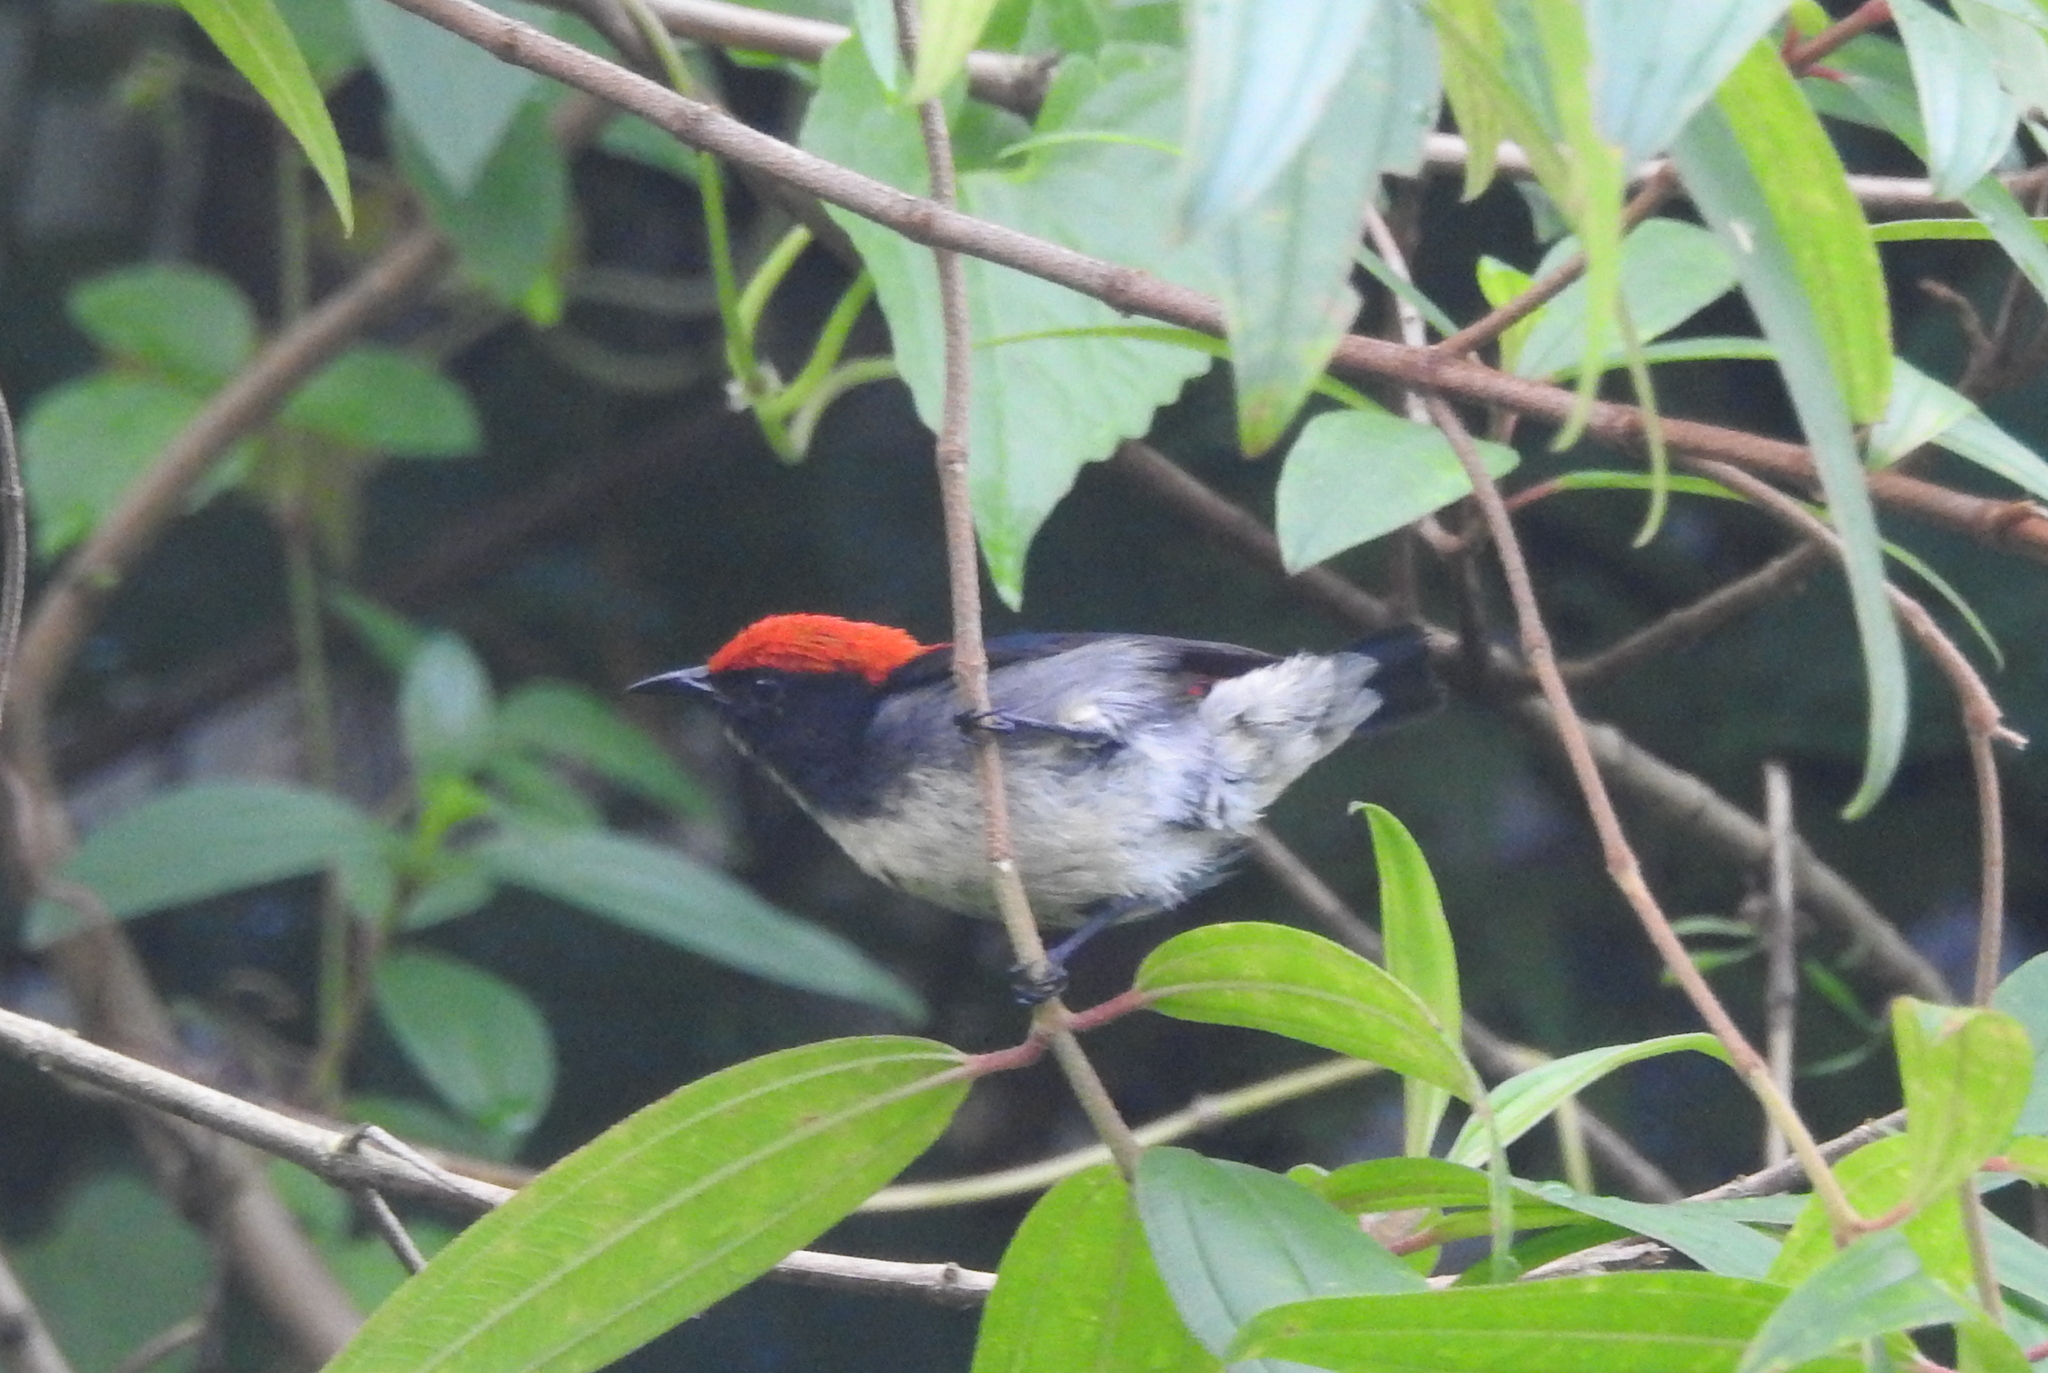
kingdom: Animalia
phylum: Chordata
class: Aves
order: Passeriformes
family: Dicaeidae
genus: Dicaeum
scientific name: Dicaeum cruentatum
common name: Scarlet-backed flowerpecker
